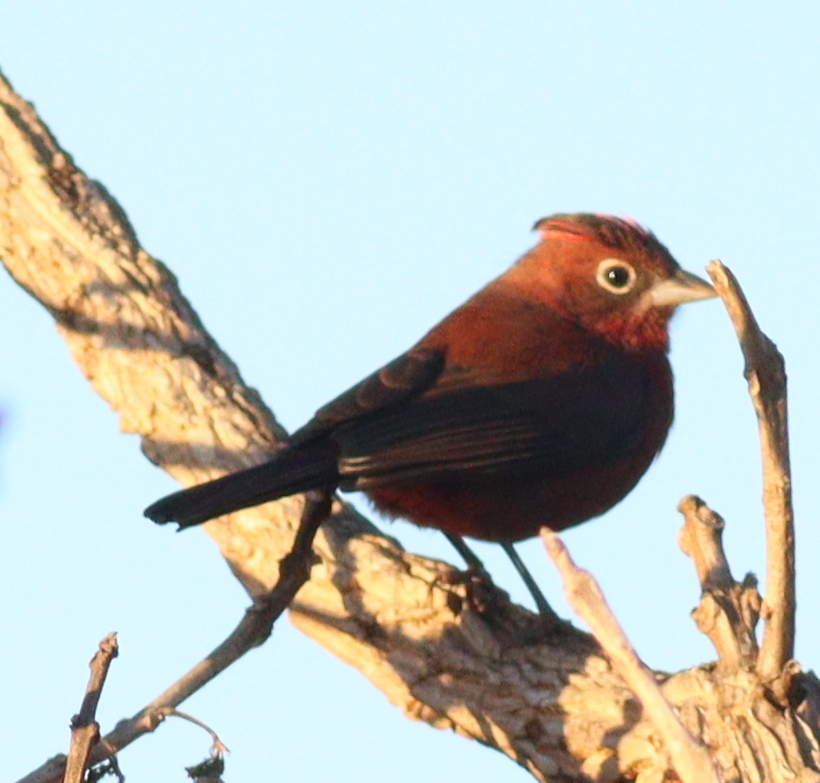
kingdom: Animalia
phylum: Chordata
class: Aves
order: Passeriformes
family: Thraupidae
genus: Coryphospingus
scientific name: Coryphospingus cucullatus
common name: Red pileated finch
